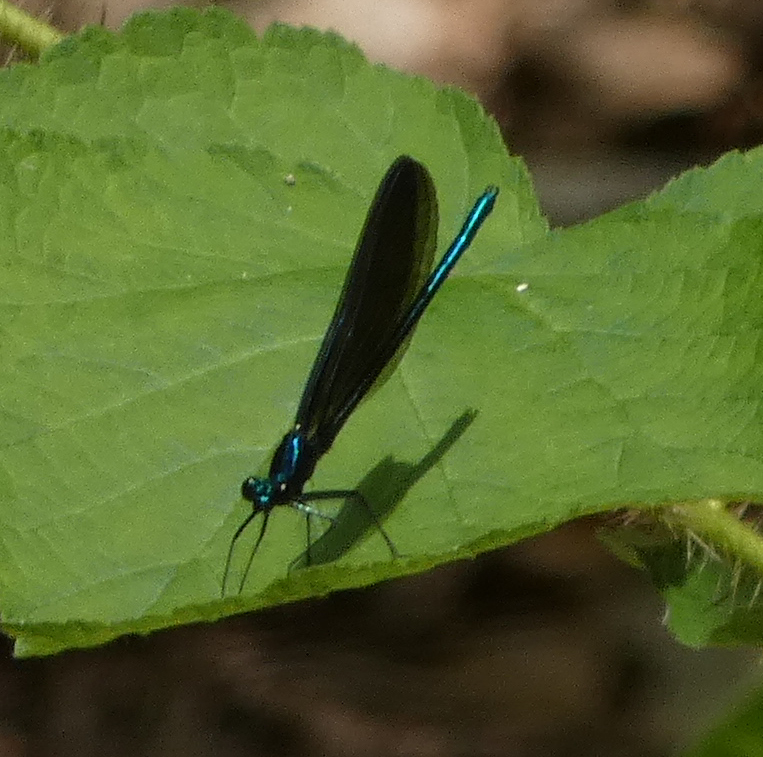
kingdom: Animalia
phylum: Arthropoda
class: Insecta
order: Odonata
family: Calopterygidae
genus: Calopteryx
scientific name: Calopteryx maculata
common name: Ebony jewelwing
